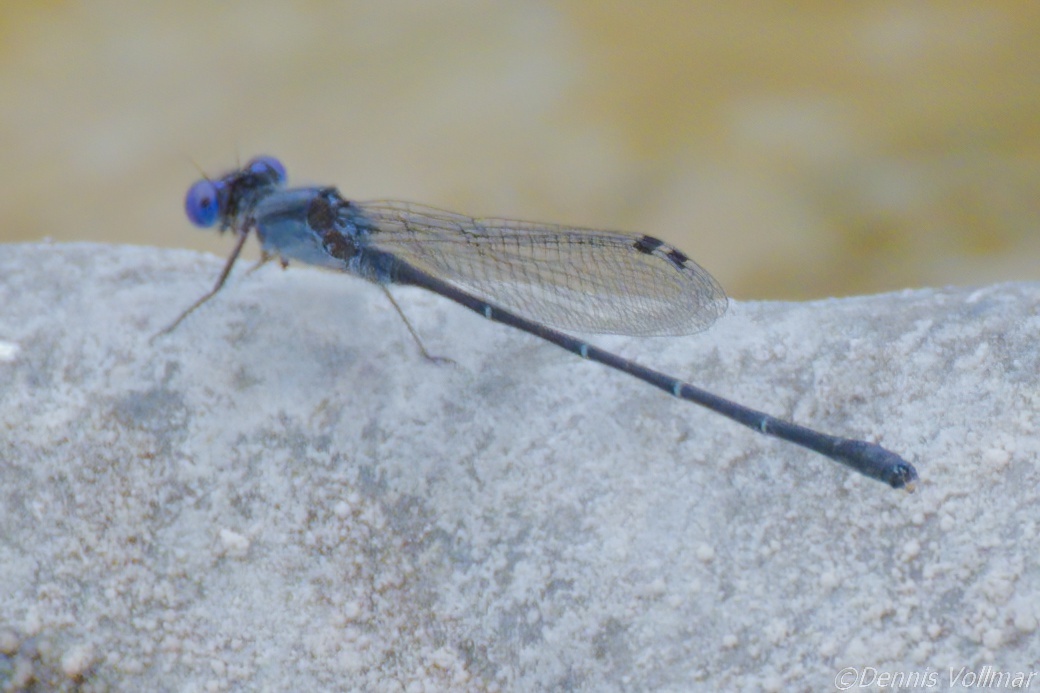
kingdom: Animalia
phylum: Arthropoda
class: Insecta
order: Odonata
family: Coenagrionidae
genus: Argia
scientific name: Argia translata
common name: Dusky dancer
